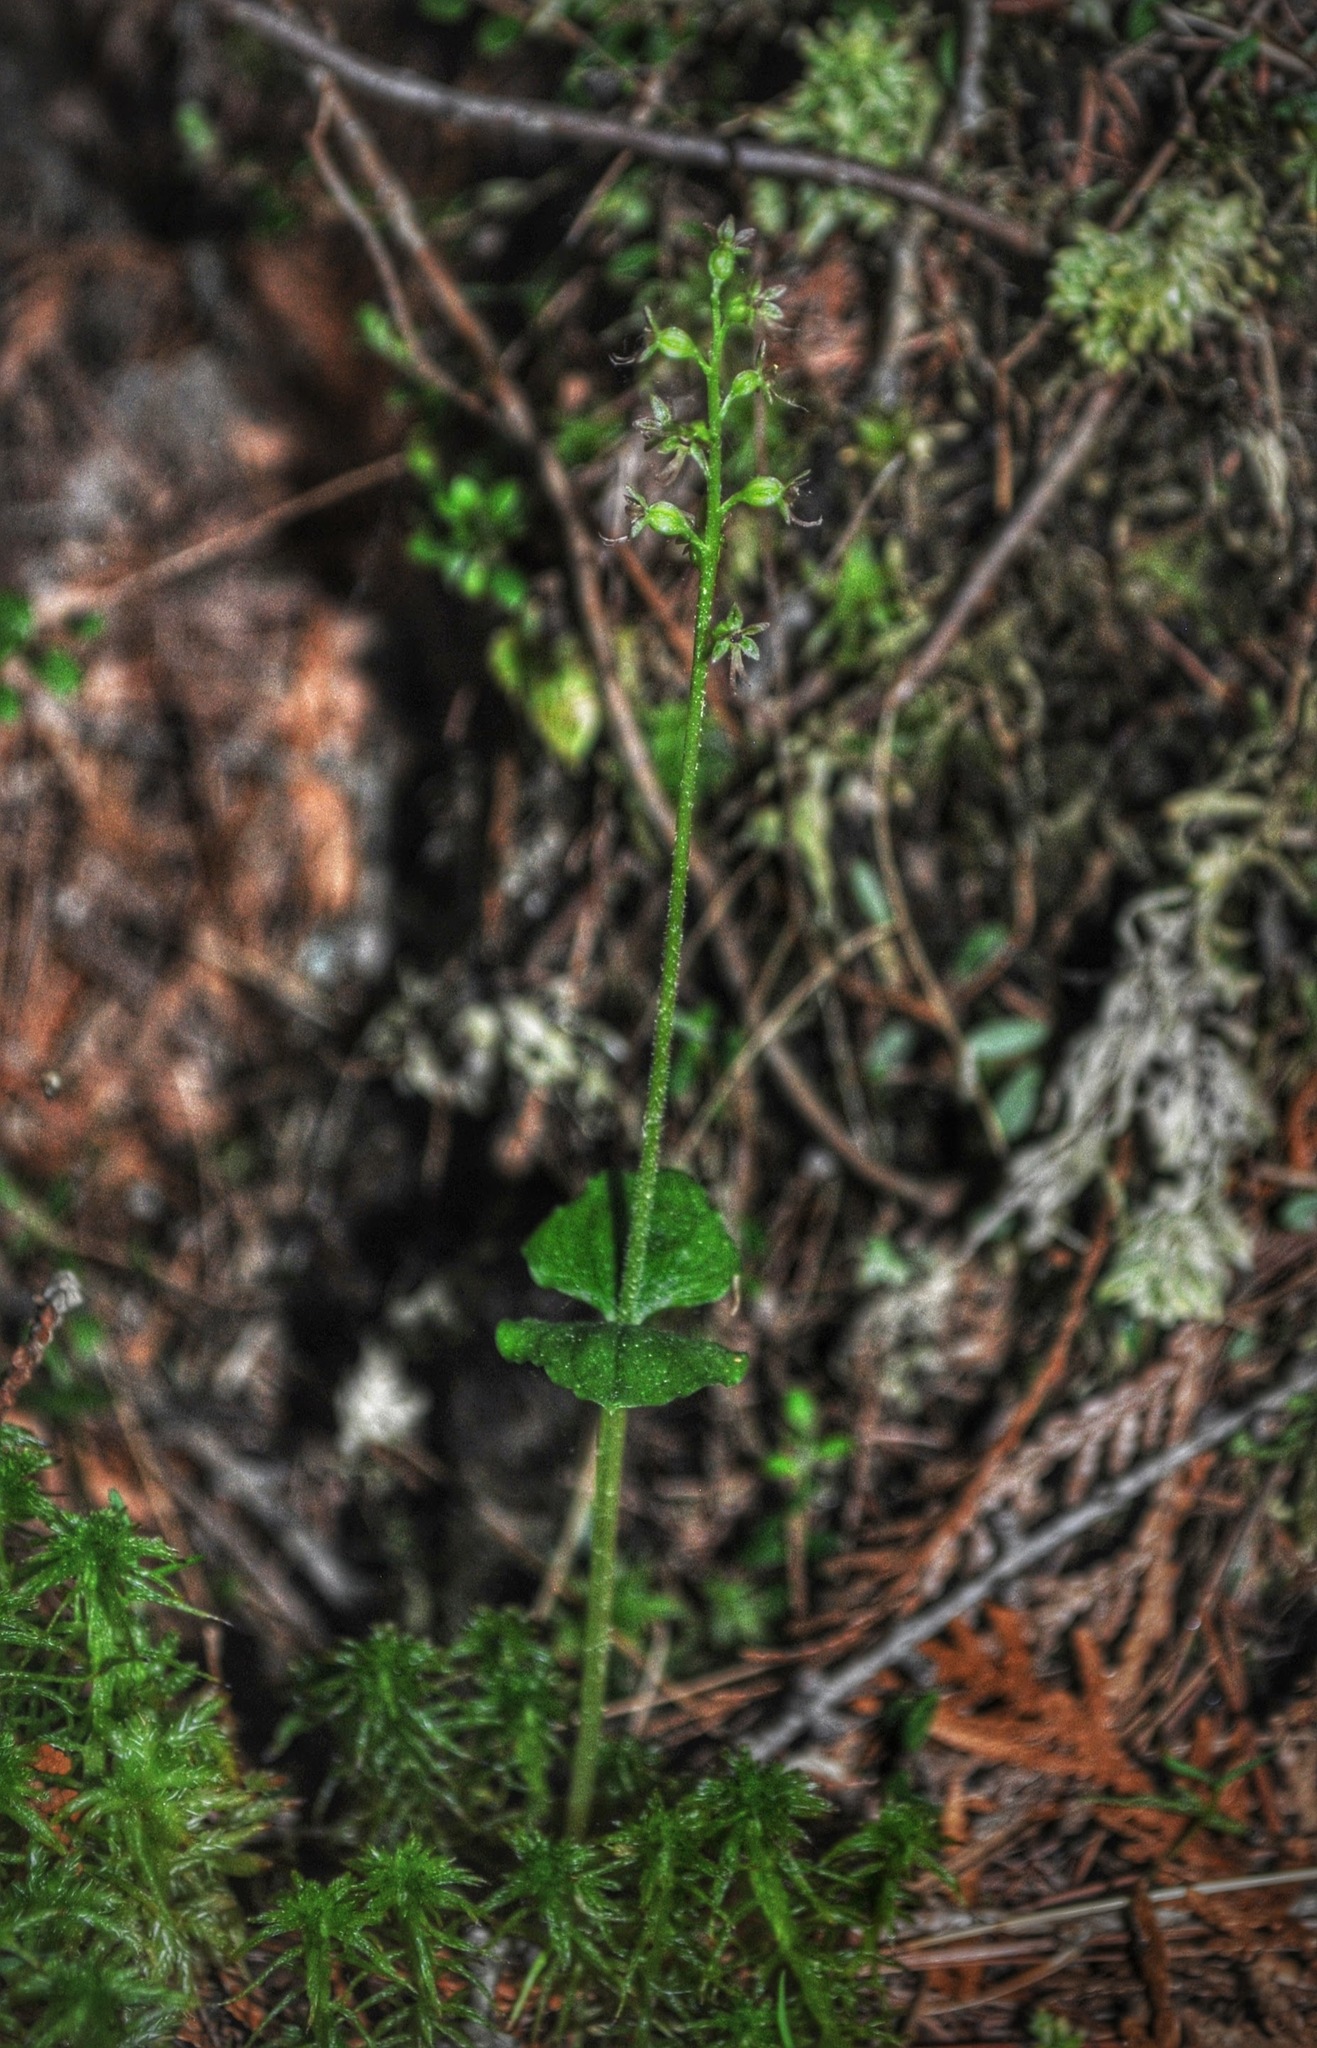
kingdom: Plantae
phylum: Tracheophyta
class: Liliopsida
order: Asparagales
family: Orchidaceae
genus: Neottia
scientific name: Neottia cordata
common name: Lesser twayblade
